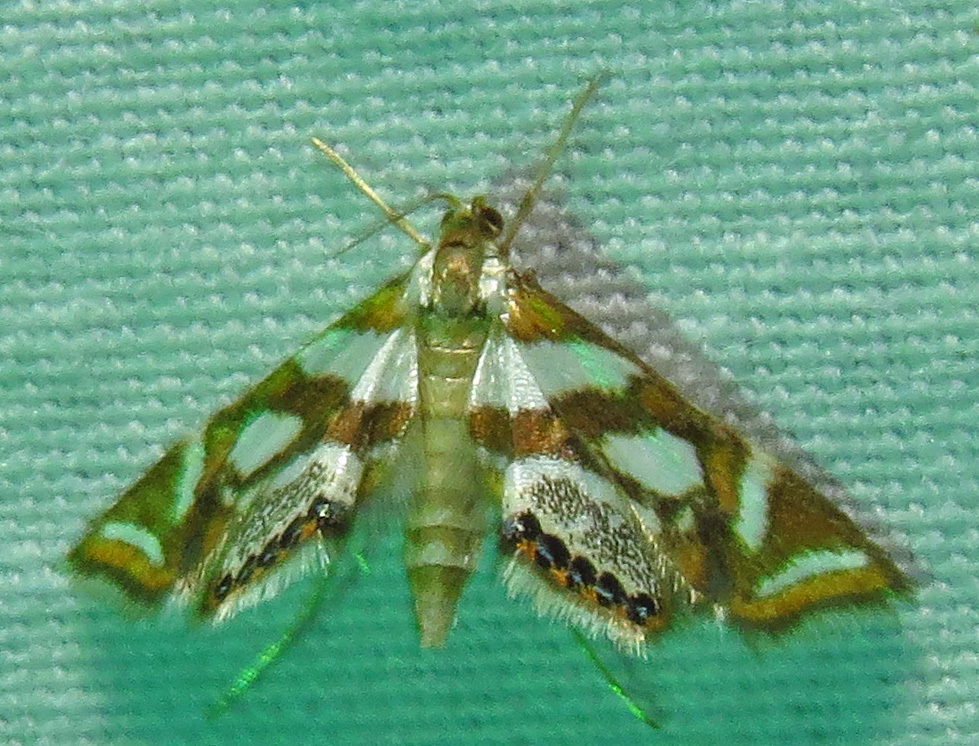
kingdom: Animalia
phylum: Arthropoda
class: Insecta
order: Lepidoptera
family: Crambidae
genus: Chrysendeton
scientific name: Chrysendeton medicinalis
